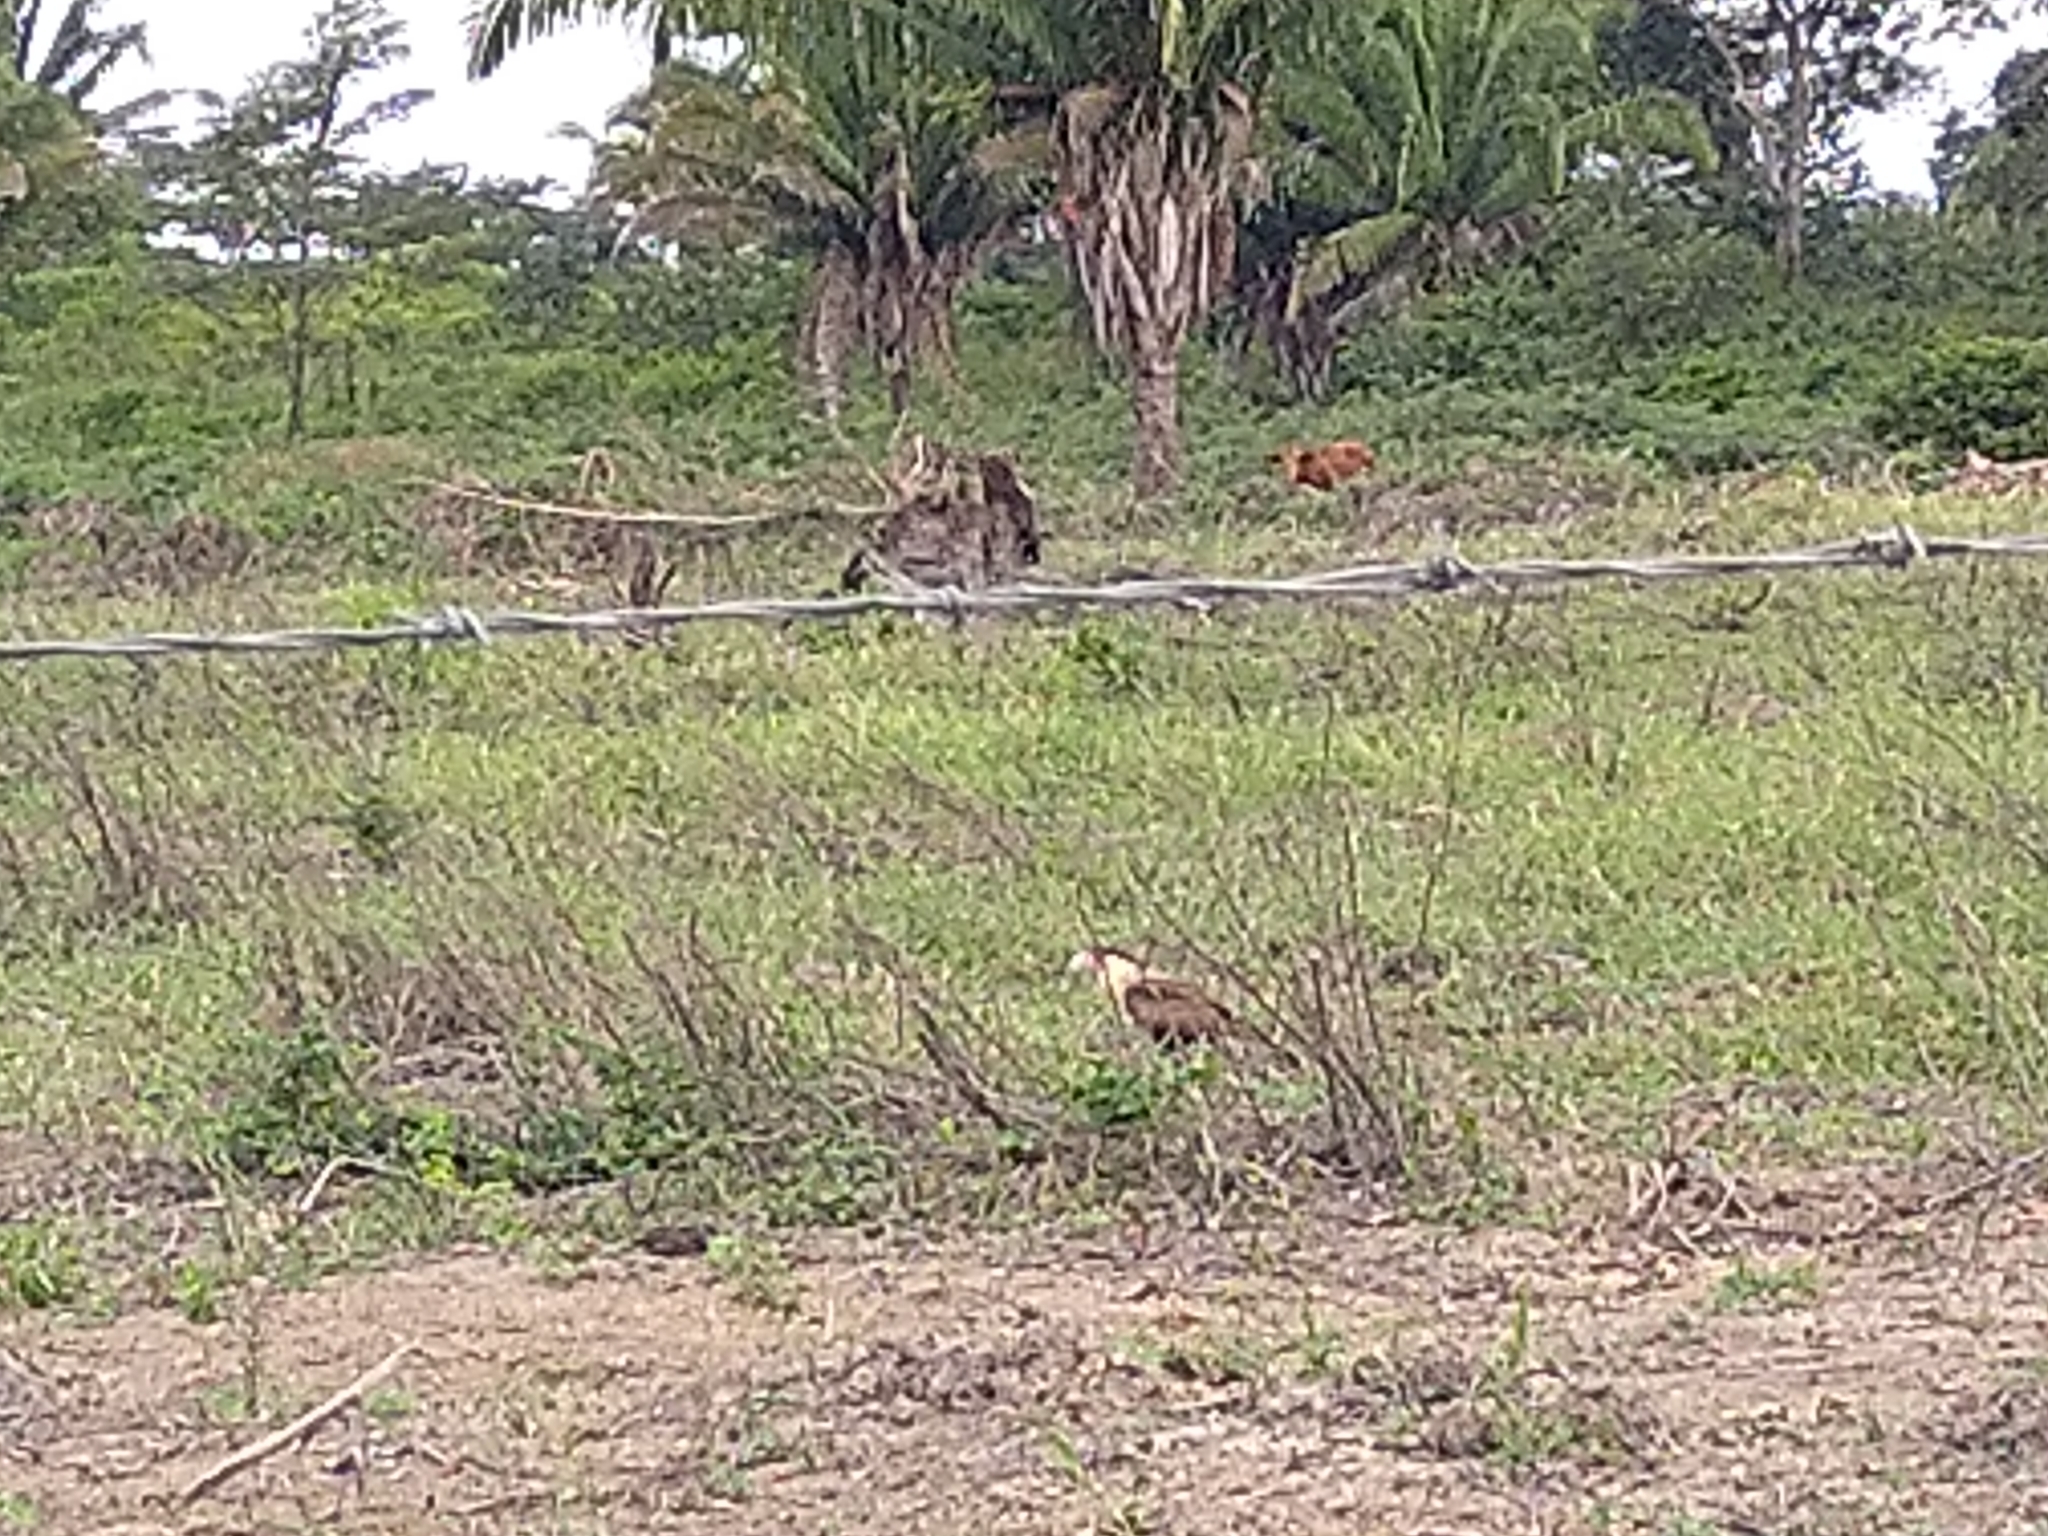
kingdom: Animalia
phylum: Chordata
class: Aves
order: Falconiformes
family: Falconidae
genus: Caracara
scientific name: Caracara plancus
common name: Southern caracara
